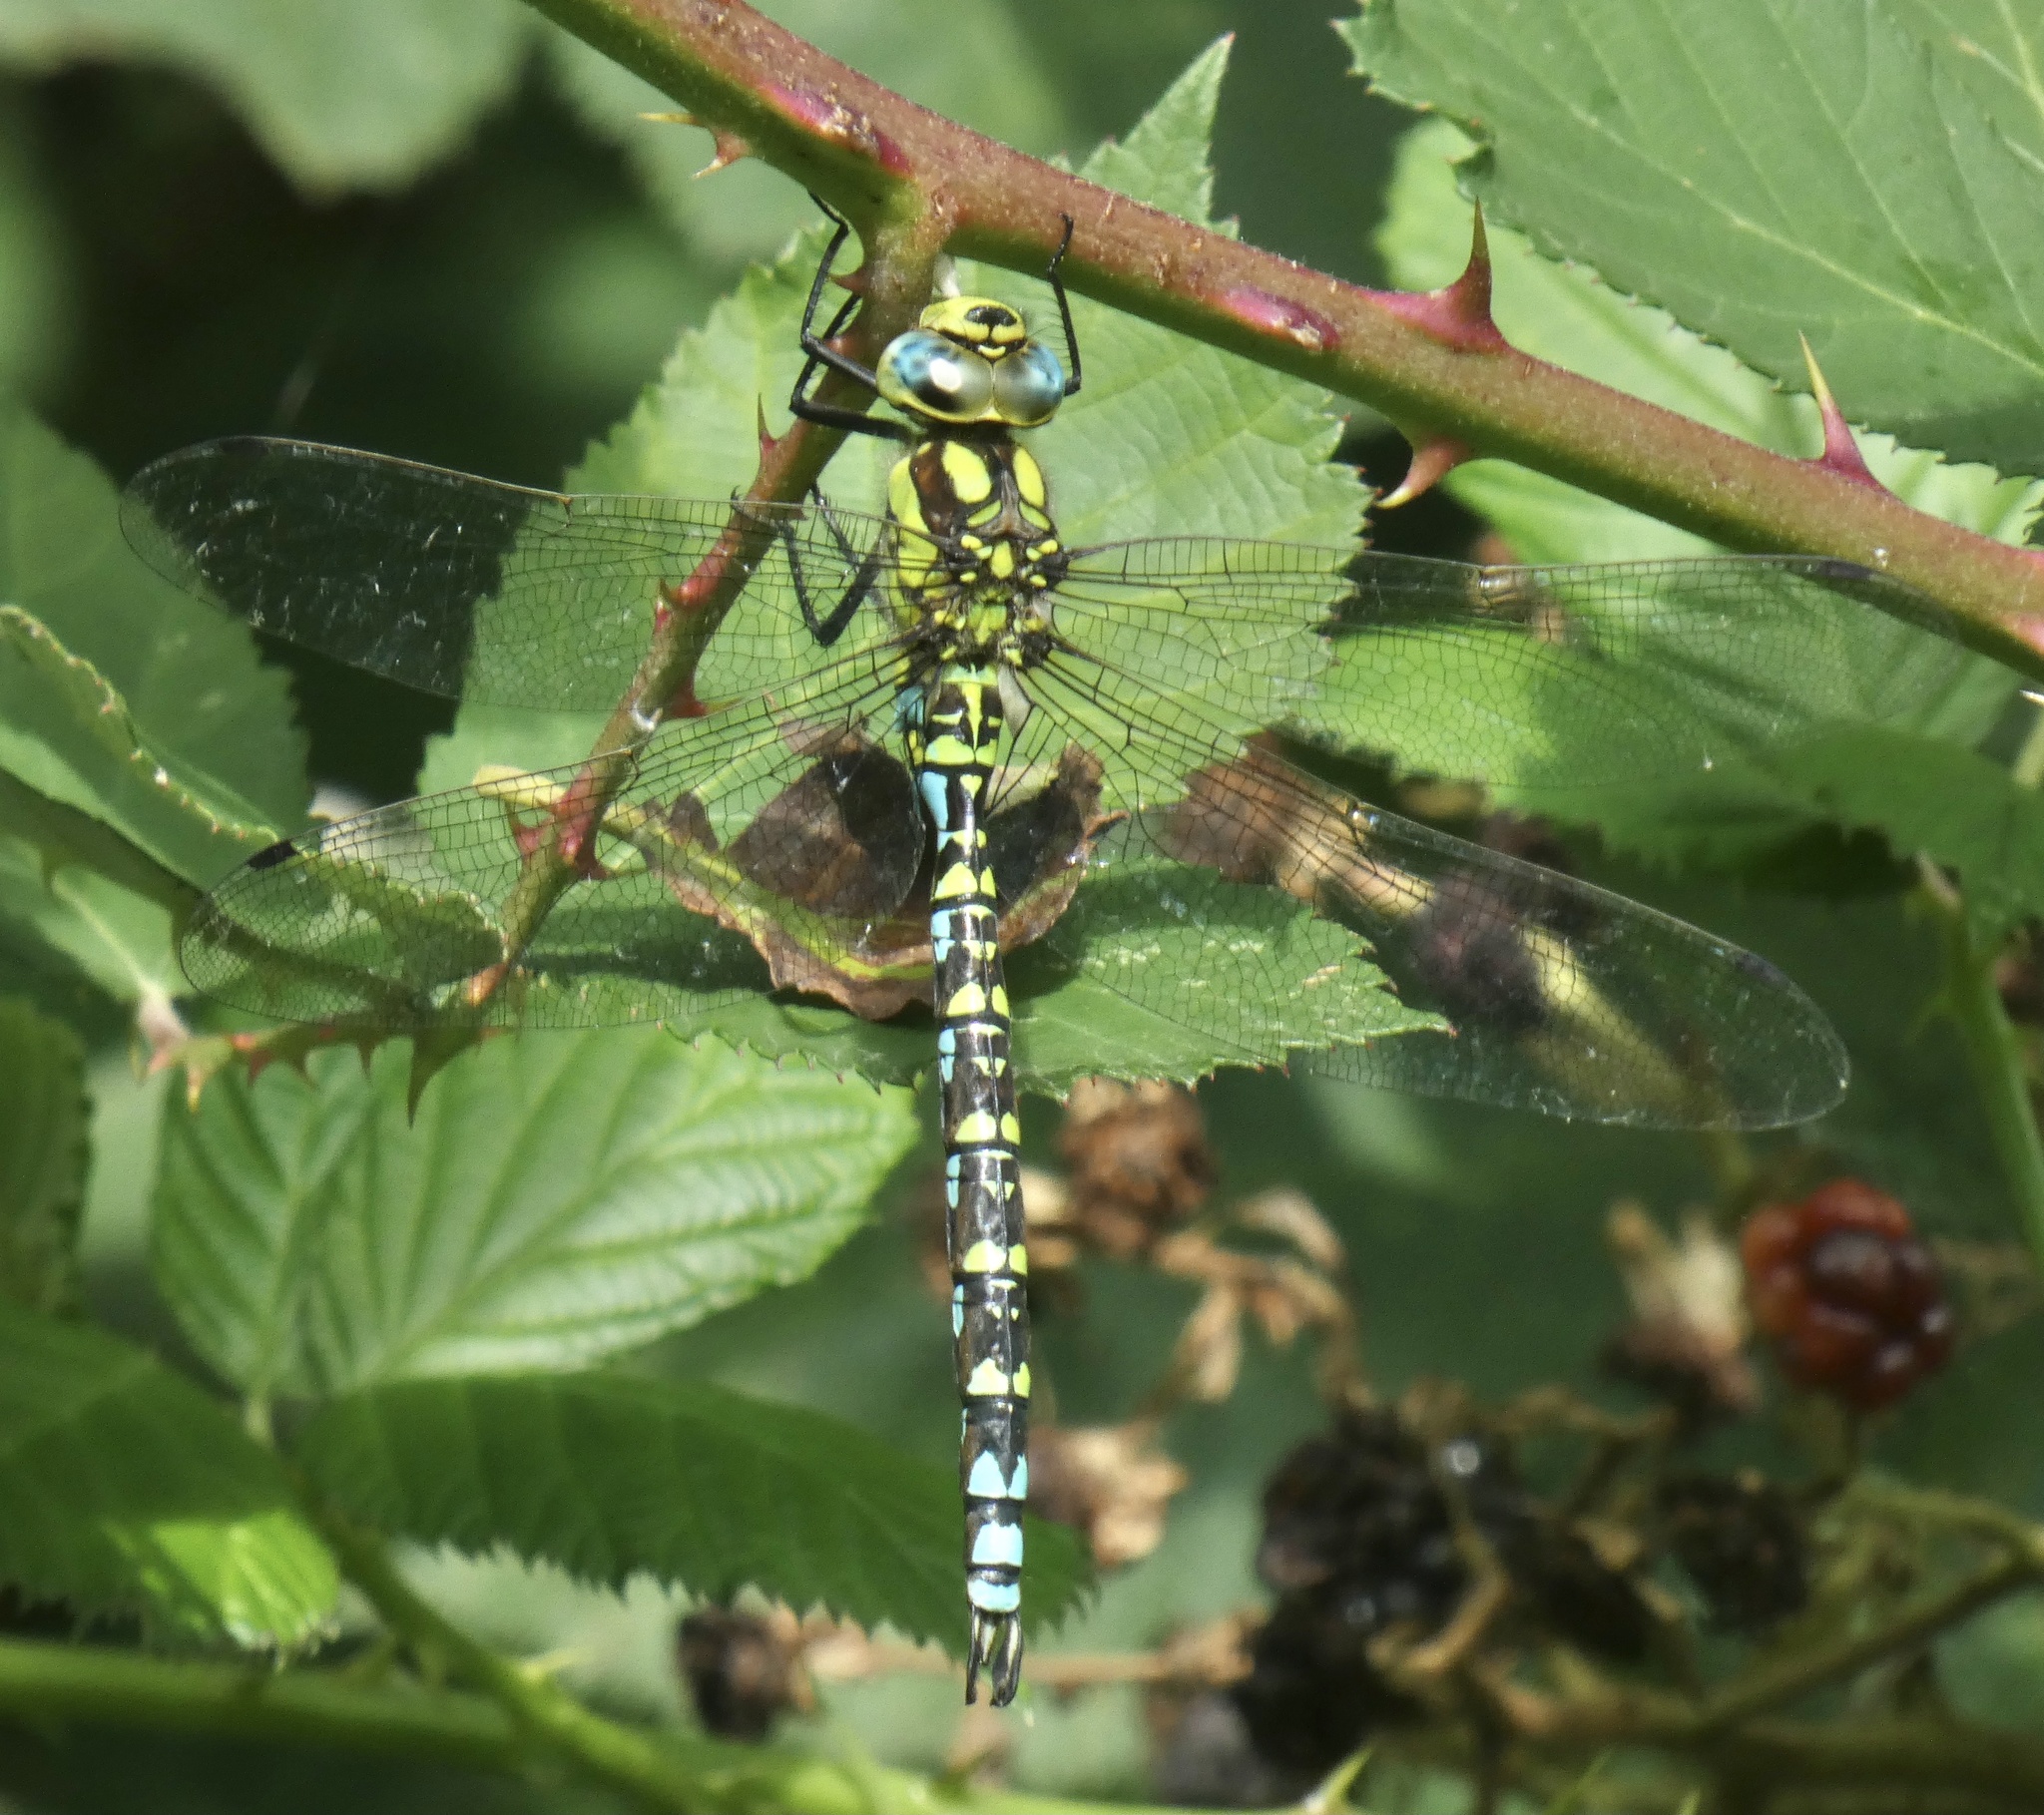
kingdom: Animalia
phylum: Arthropoda
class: Insecta
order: Odonata
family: Aeshnidae
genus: Aeshna
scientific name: Aeshna cyanea
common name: Southern hawker
